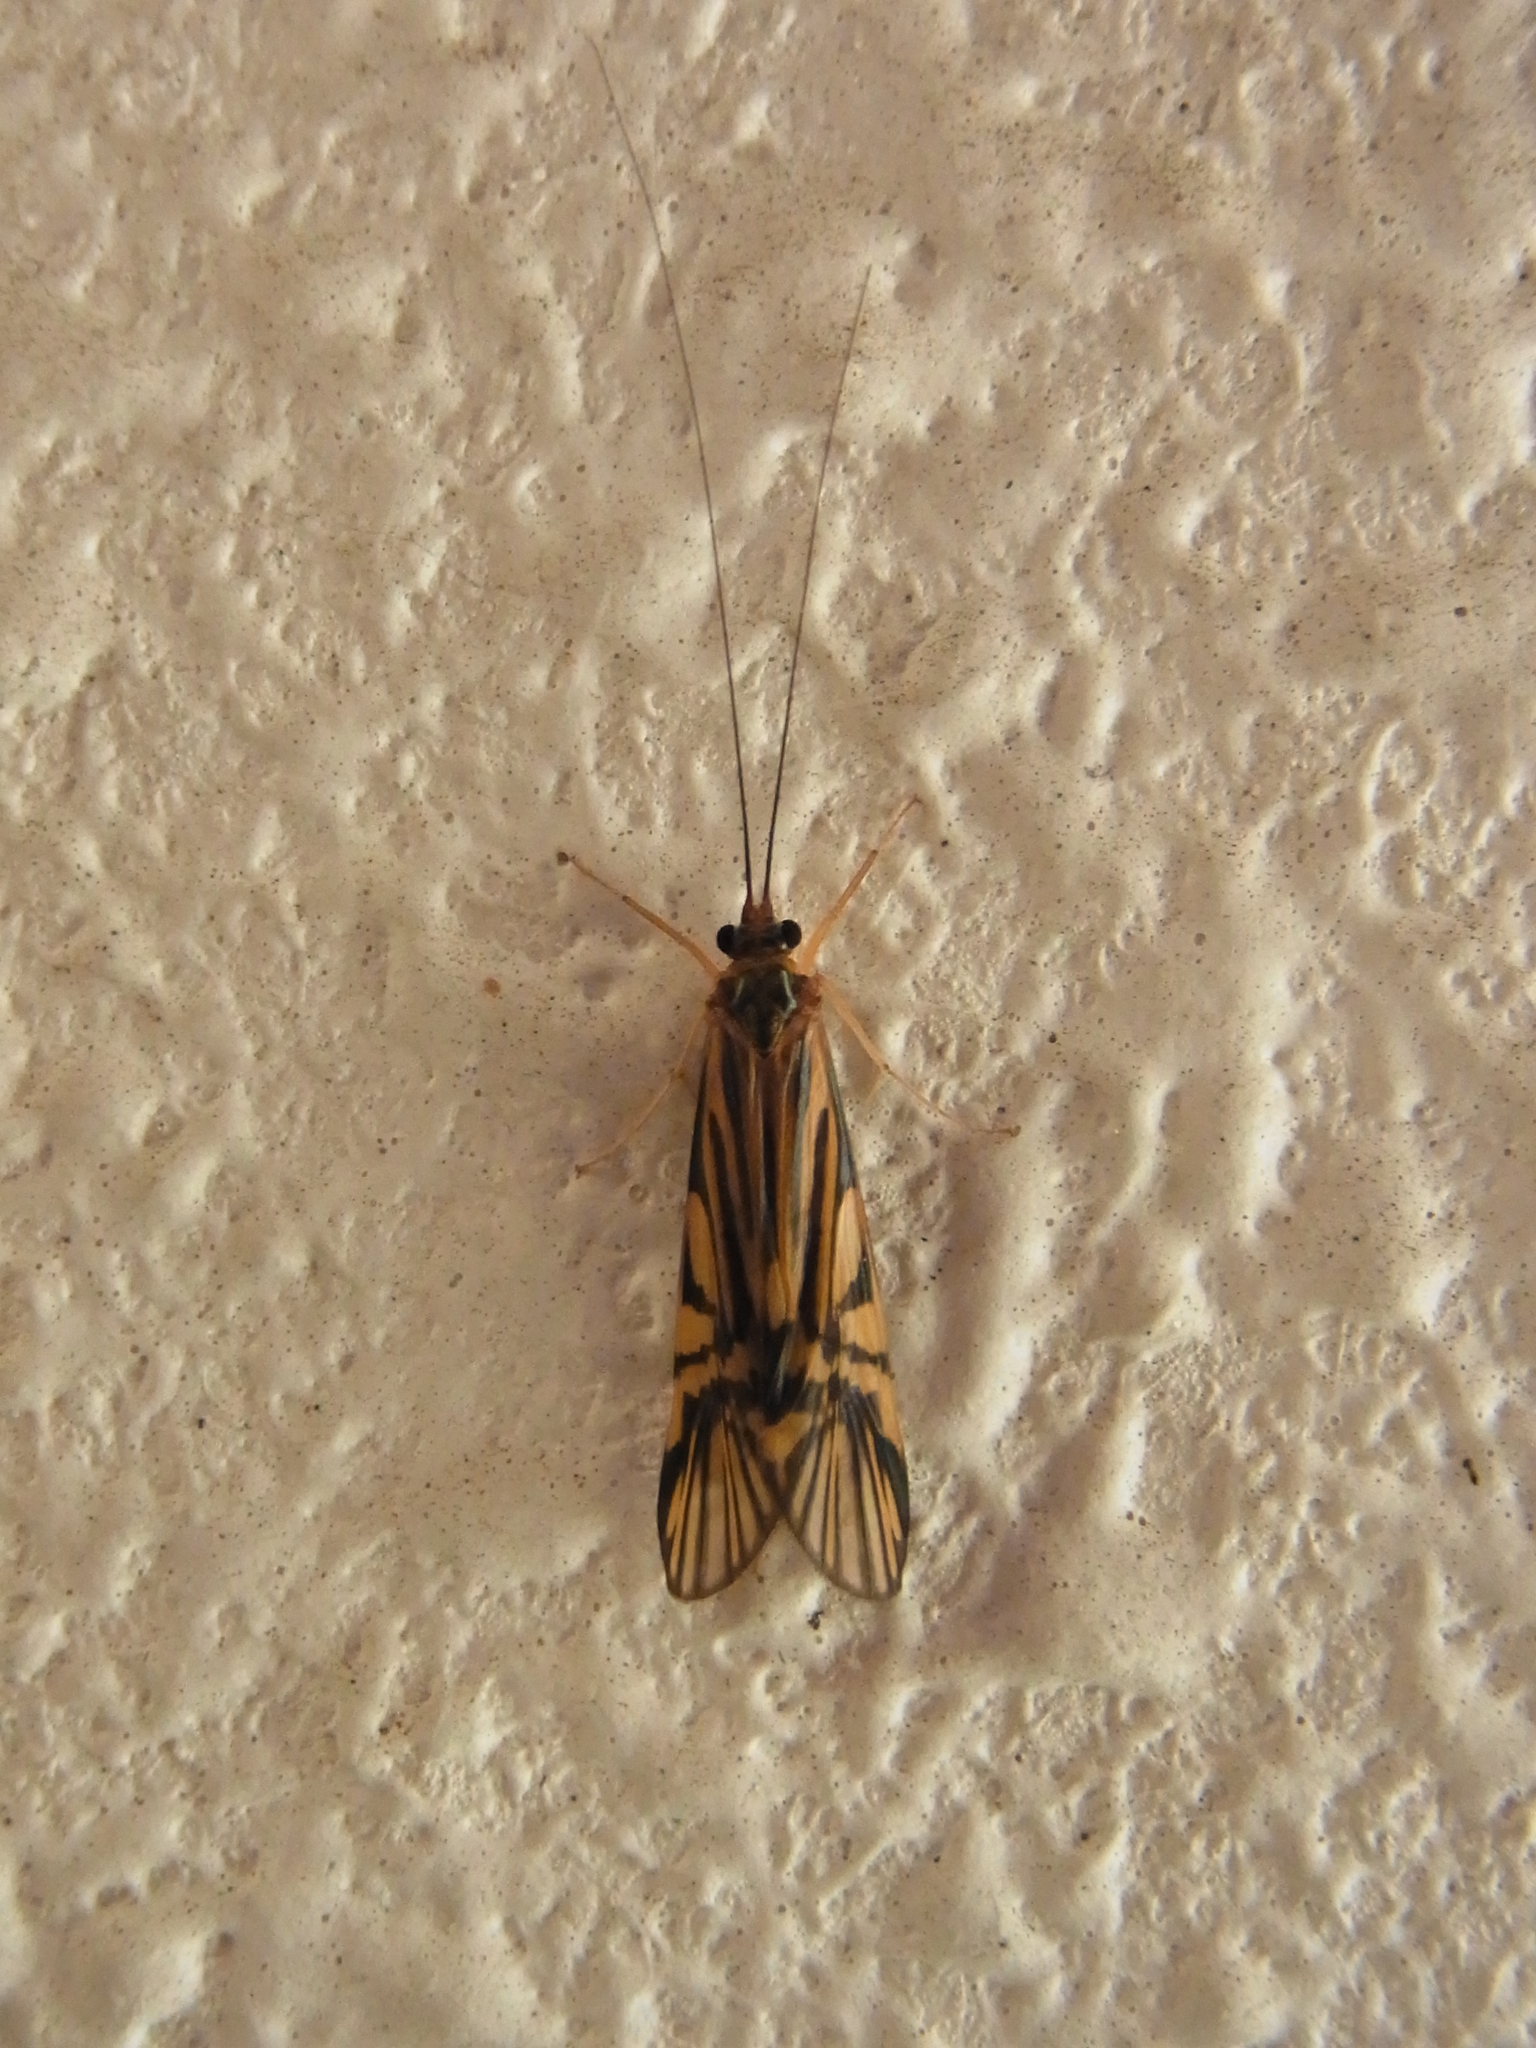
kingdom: Animalia
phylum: Arthropoda
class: Insecta
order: Trichoptera
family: Hydropsychidae
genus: Macrostemum
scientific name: Macrostemum radiatum
